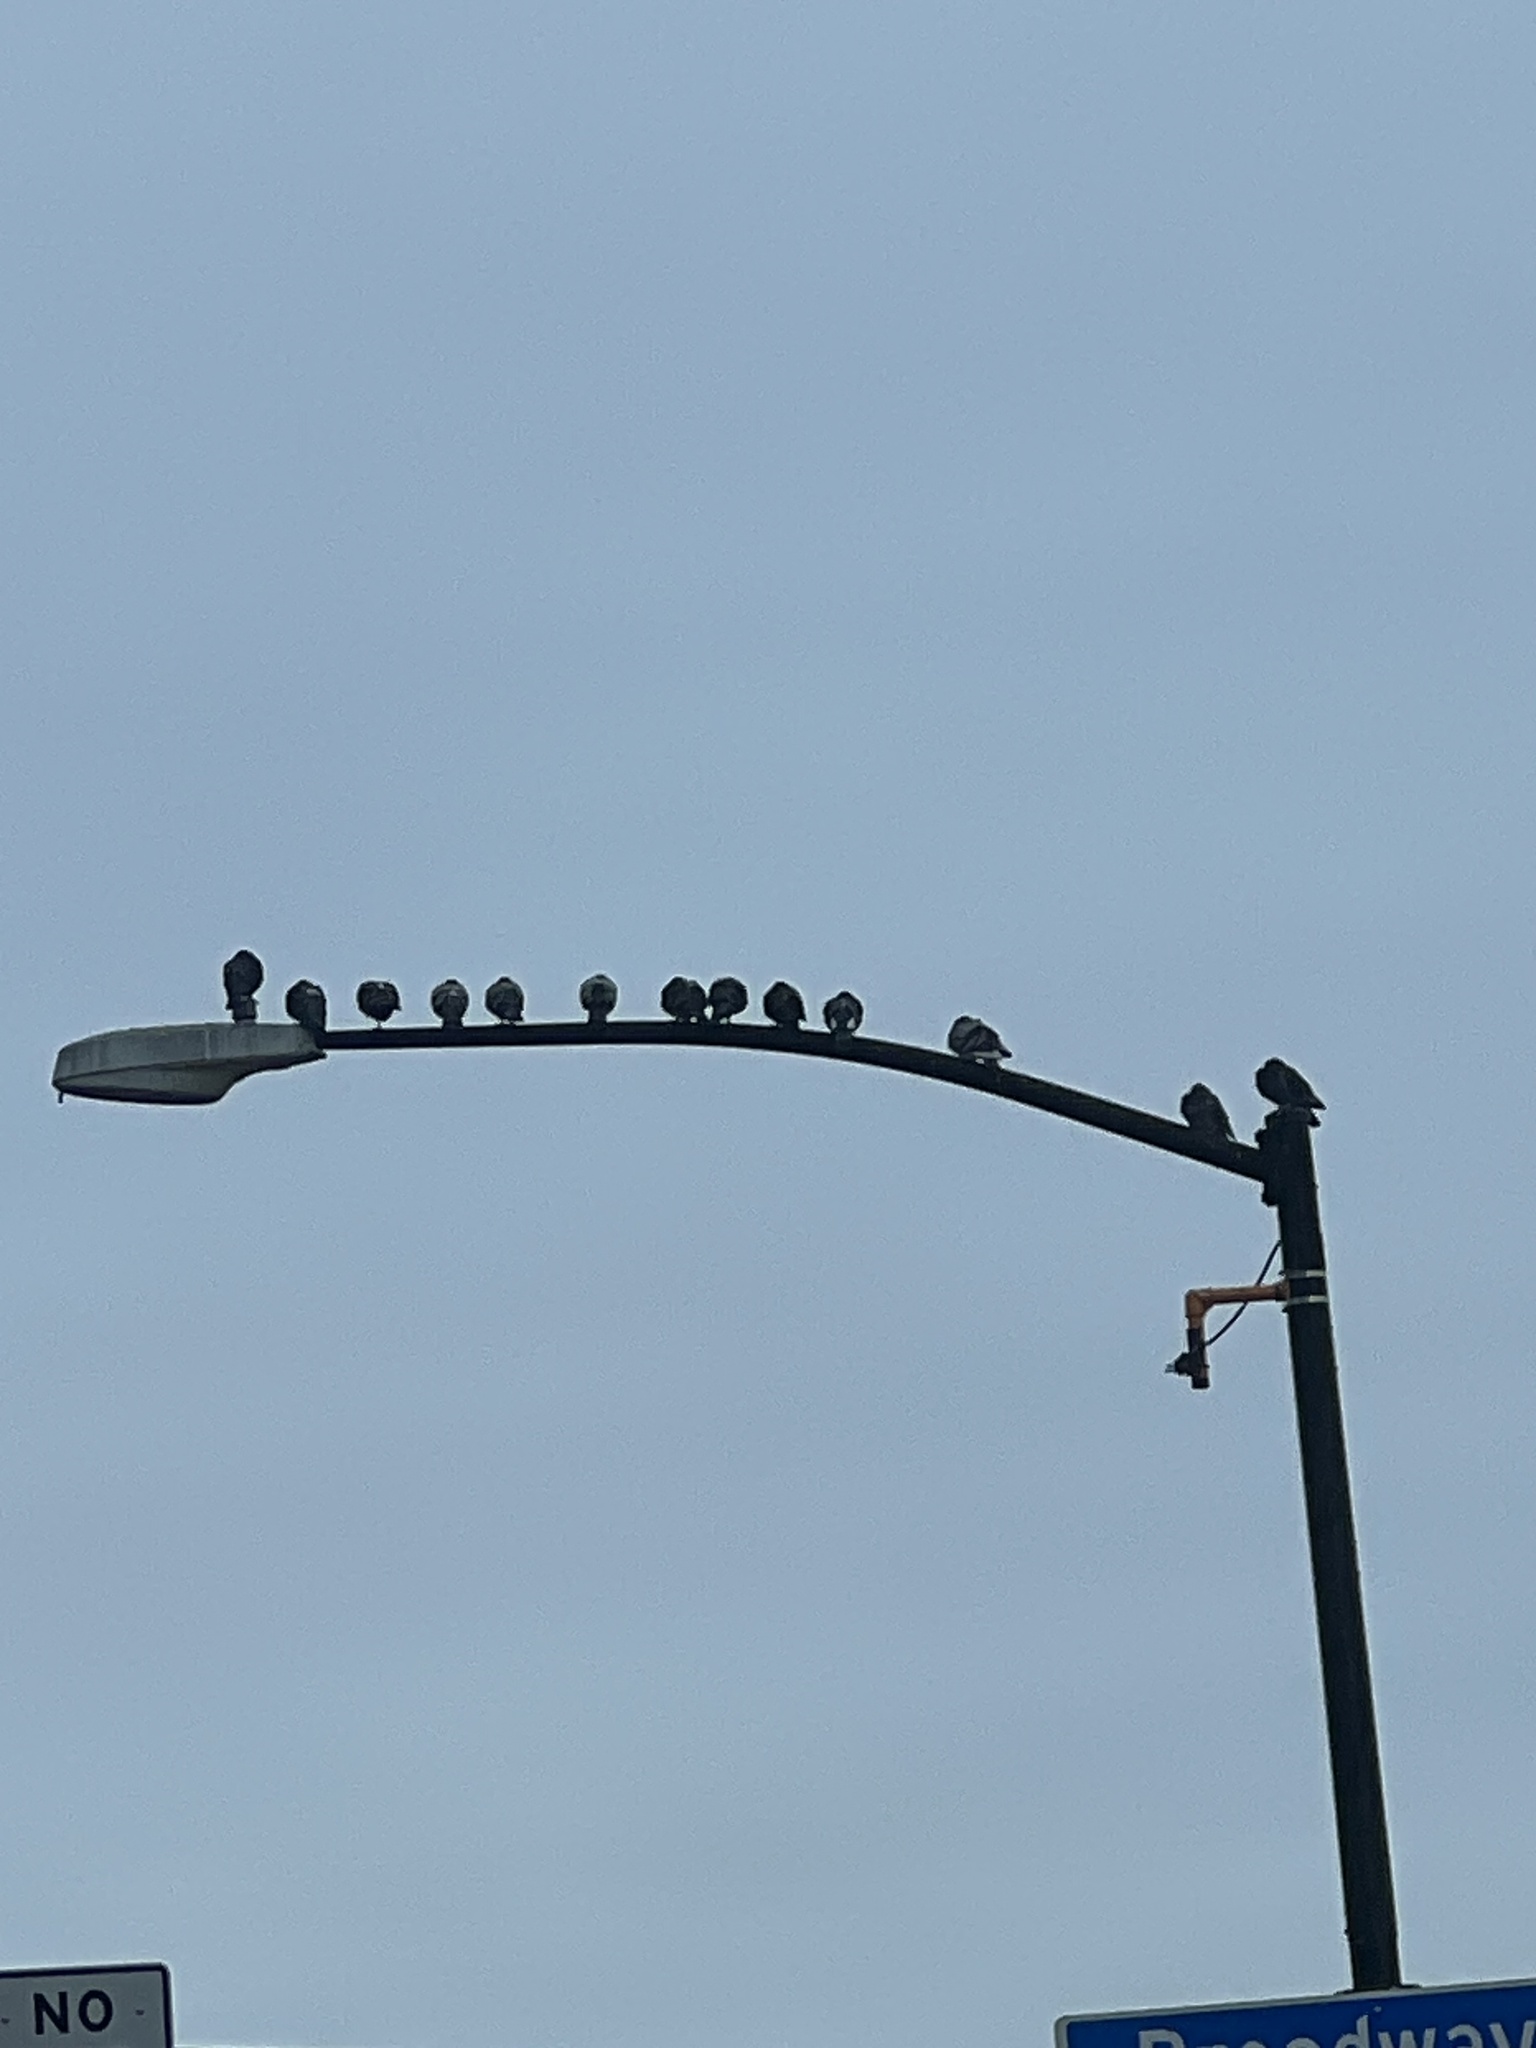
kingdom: Animalia
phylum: Chordata
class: Aves
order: Columbiformes
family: Columbidae
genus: Columba
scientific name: Columba livia
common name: Rock pigeon
